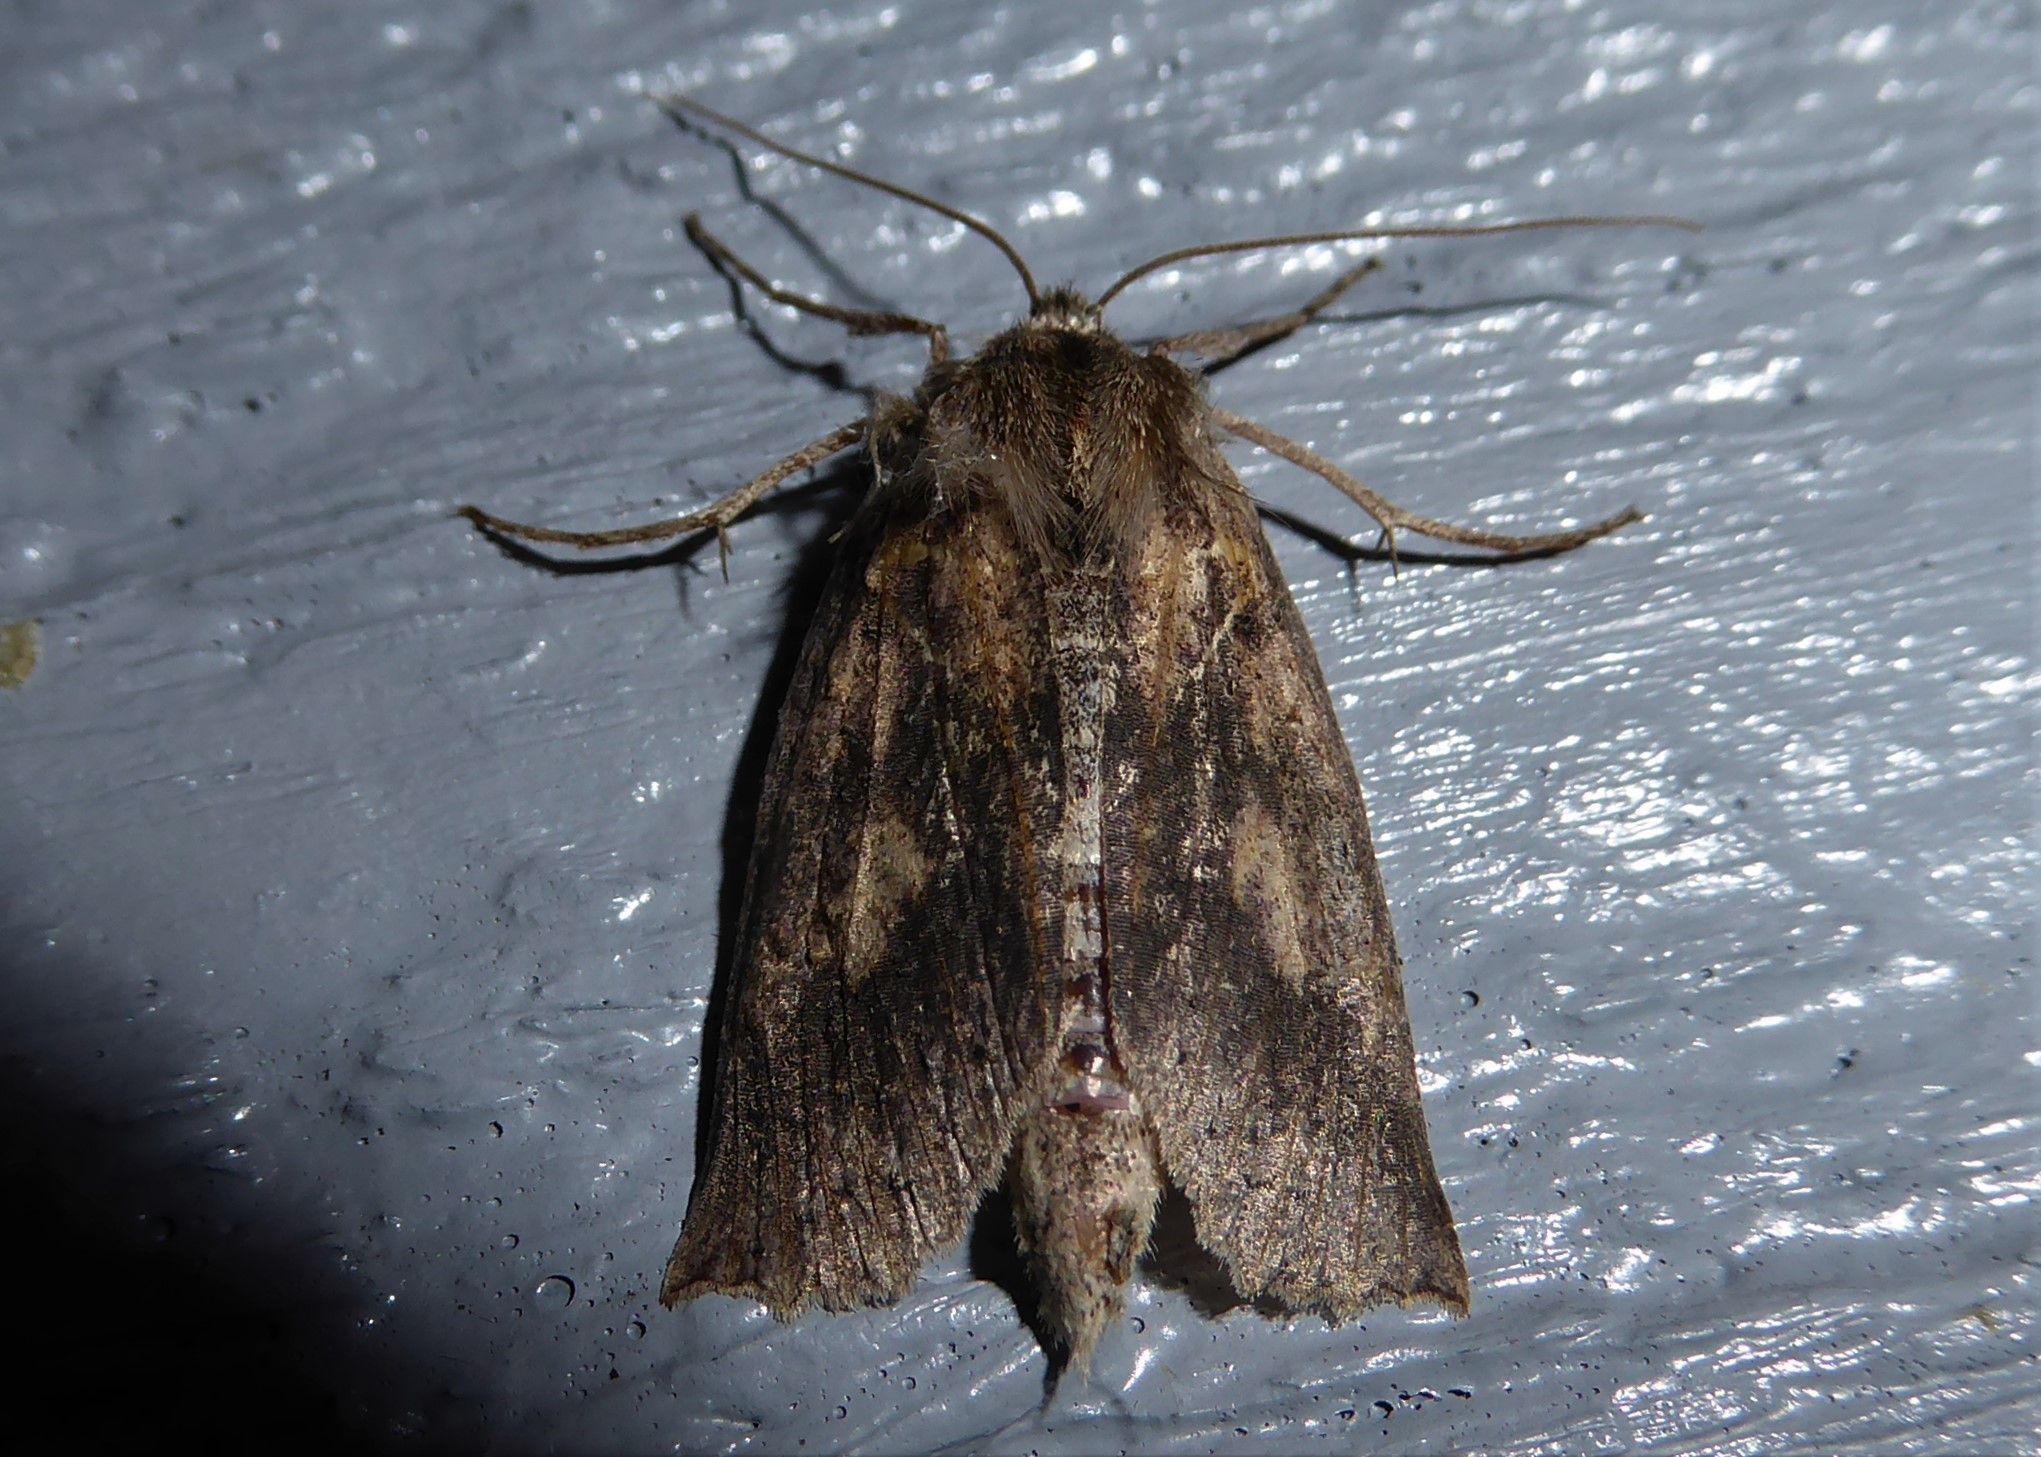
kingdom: Animalia
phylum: Arthropoda
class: Insecta
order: Lepidoptera
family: Geometridae
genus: Declana
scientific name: Declana leptomera
